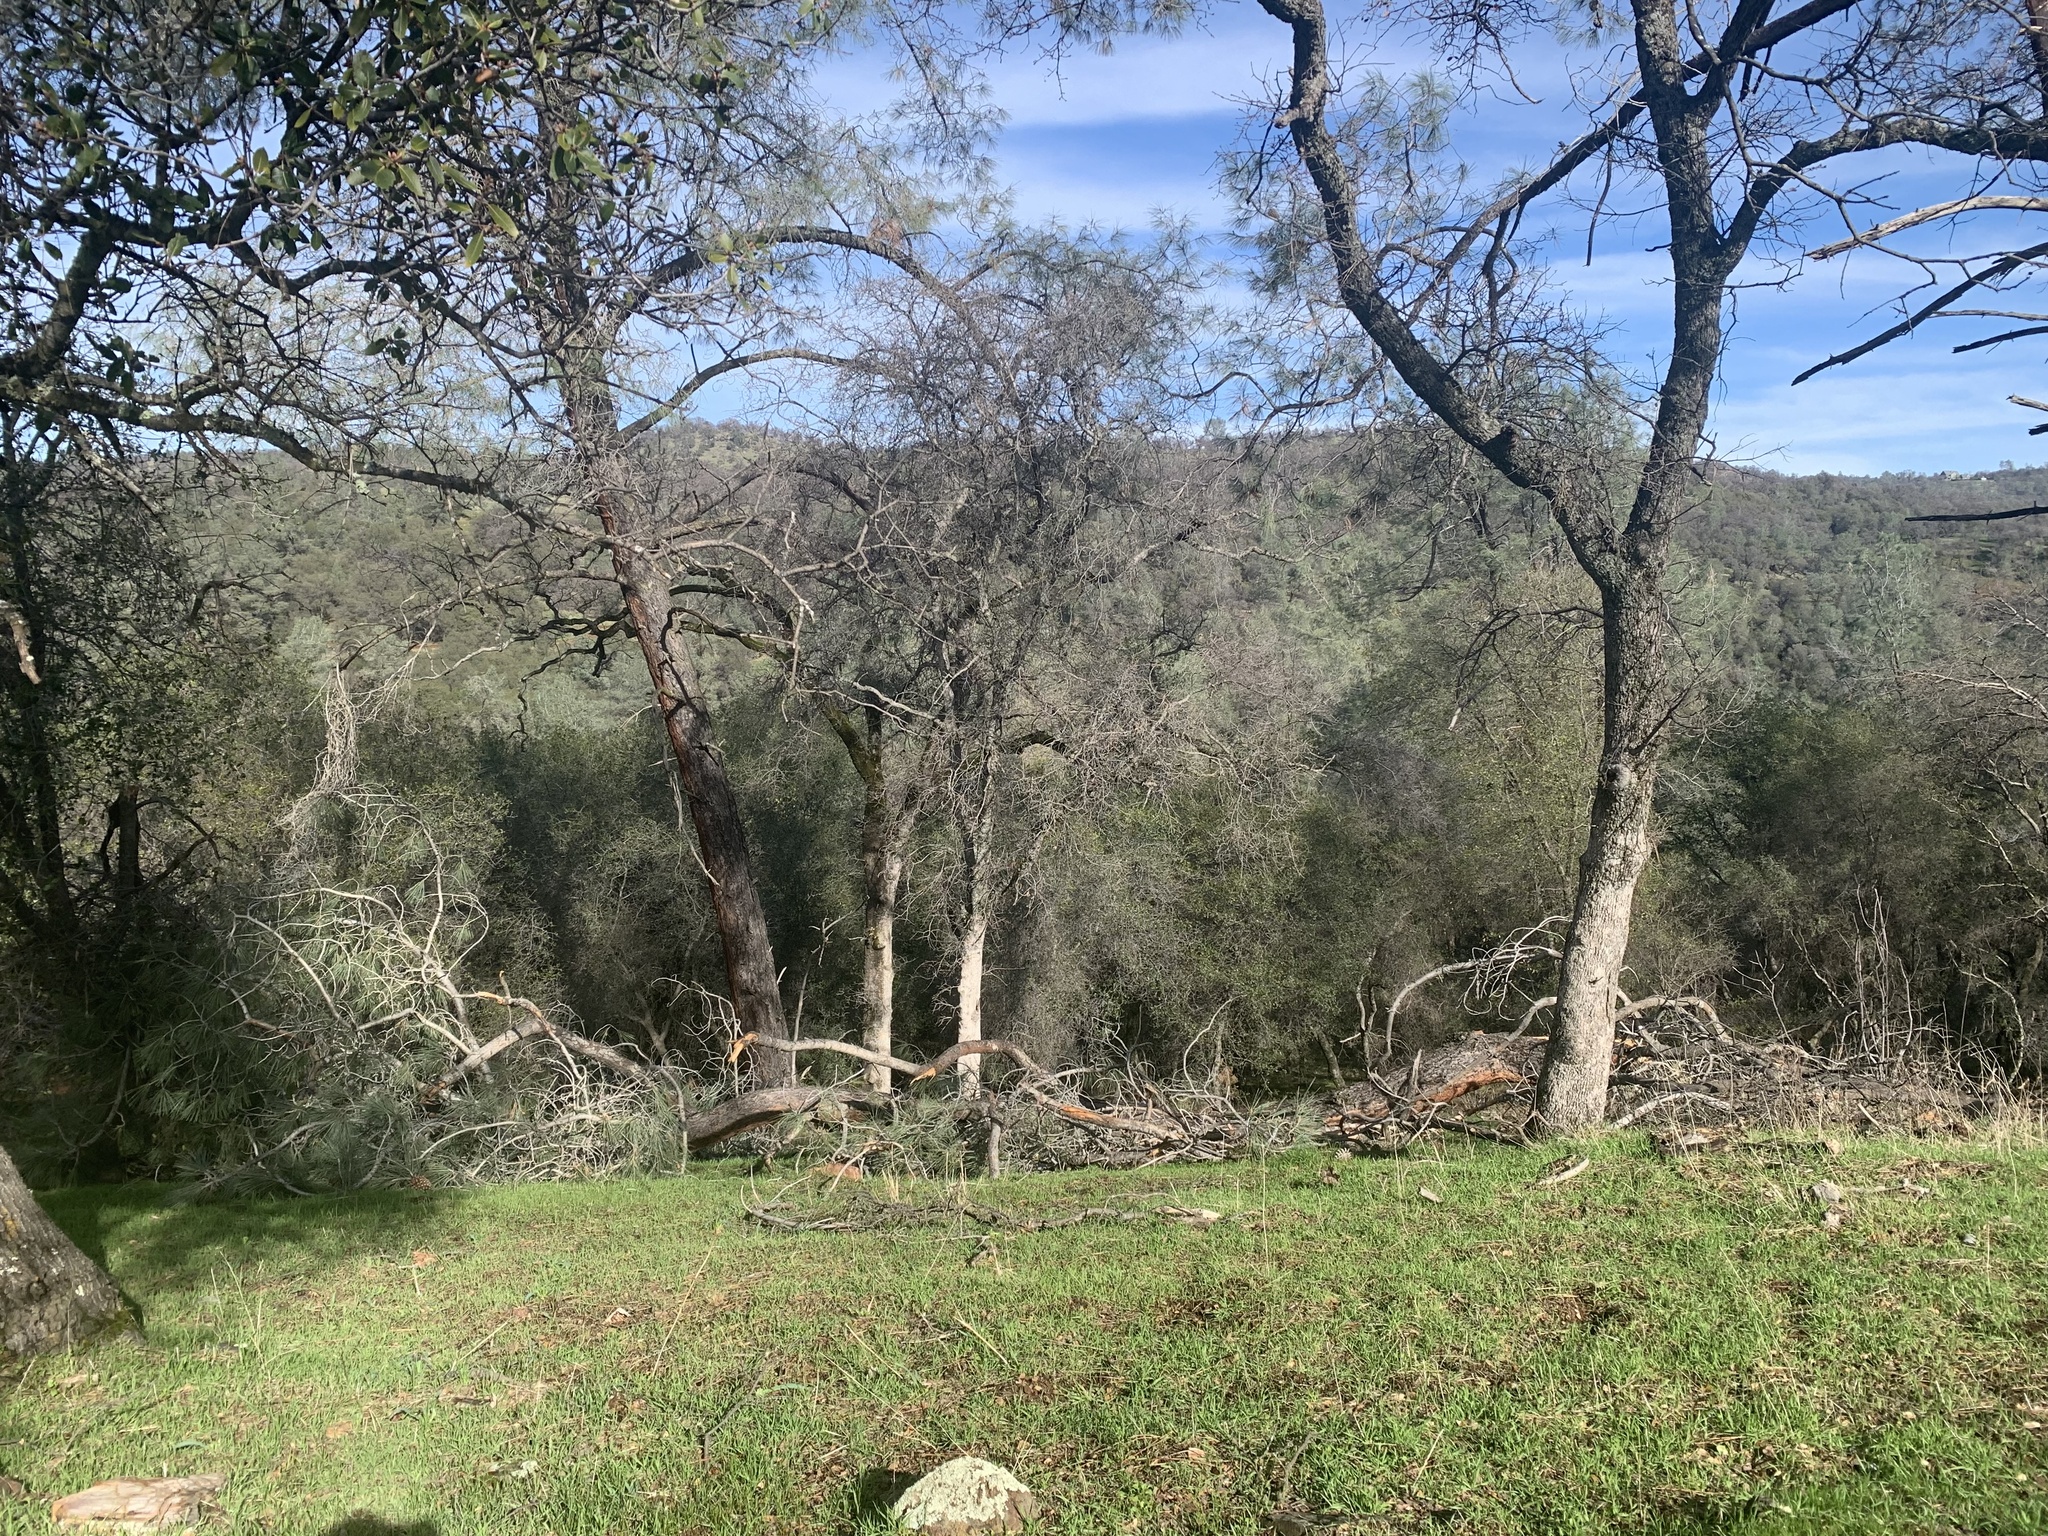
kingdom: Plantae
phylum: Tracheophyta
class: Pinopsida
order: Pinales
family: Pinaceae
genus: Pinus
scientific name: Pinus sabiniana
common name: Bull pine
